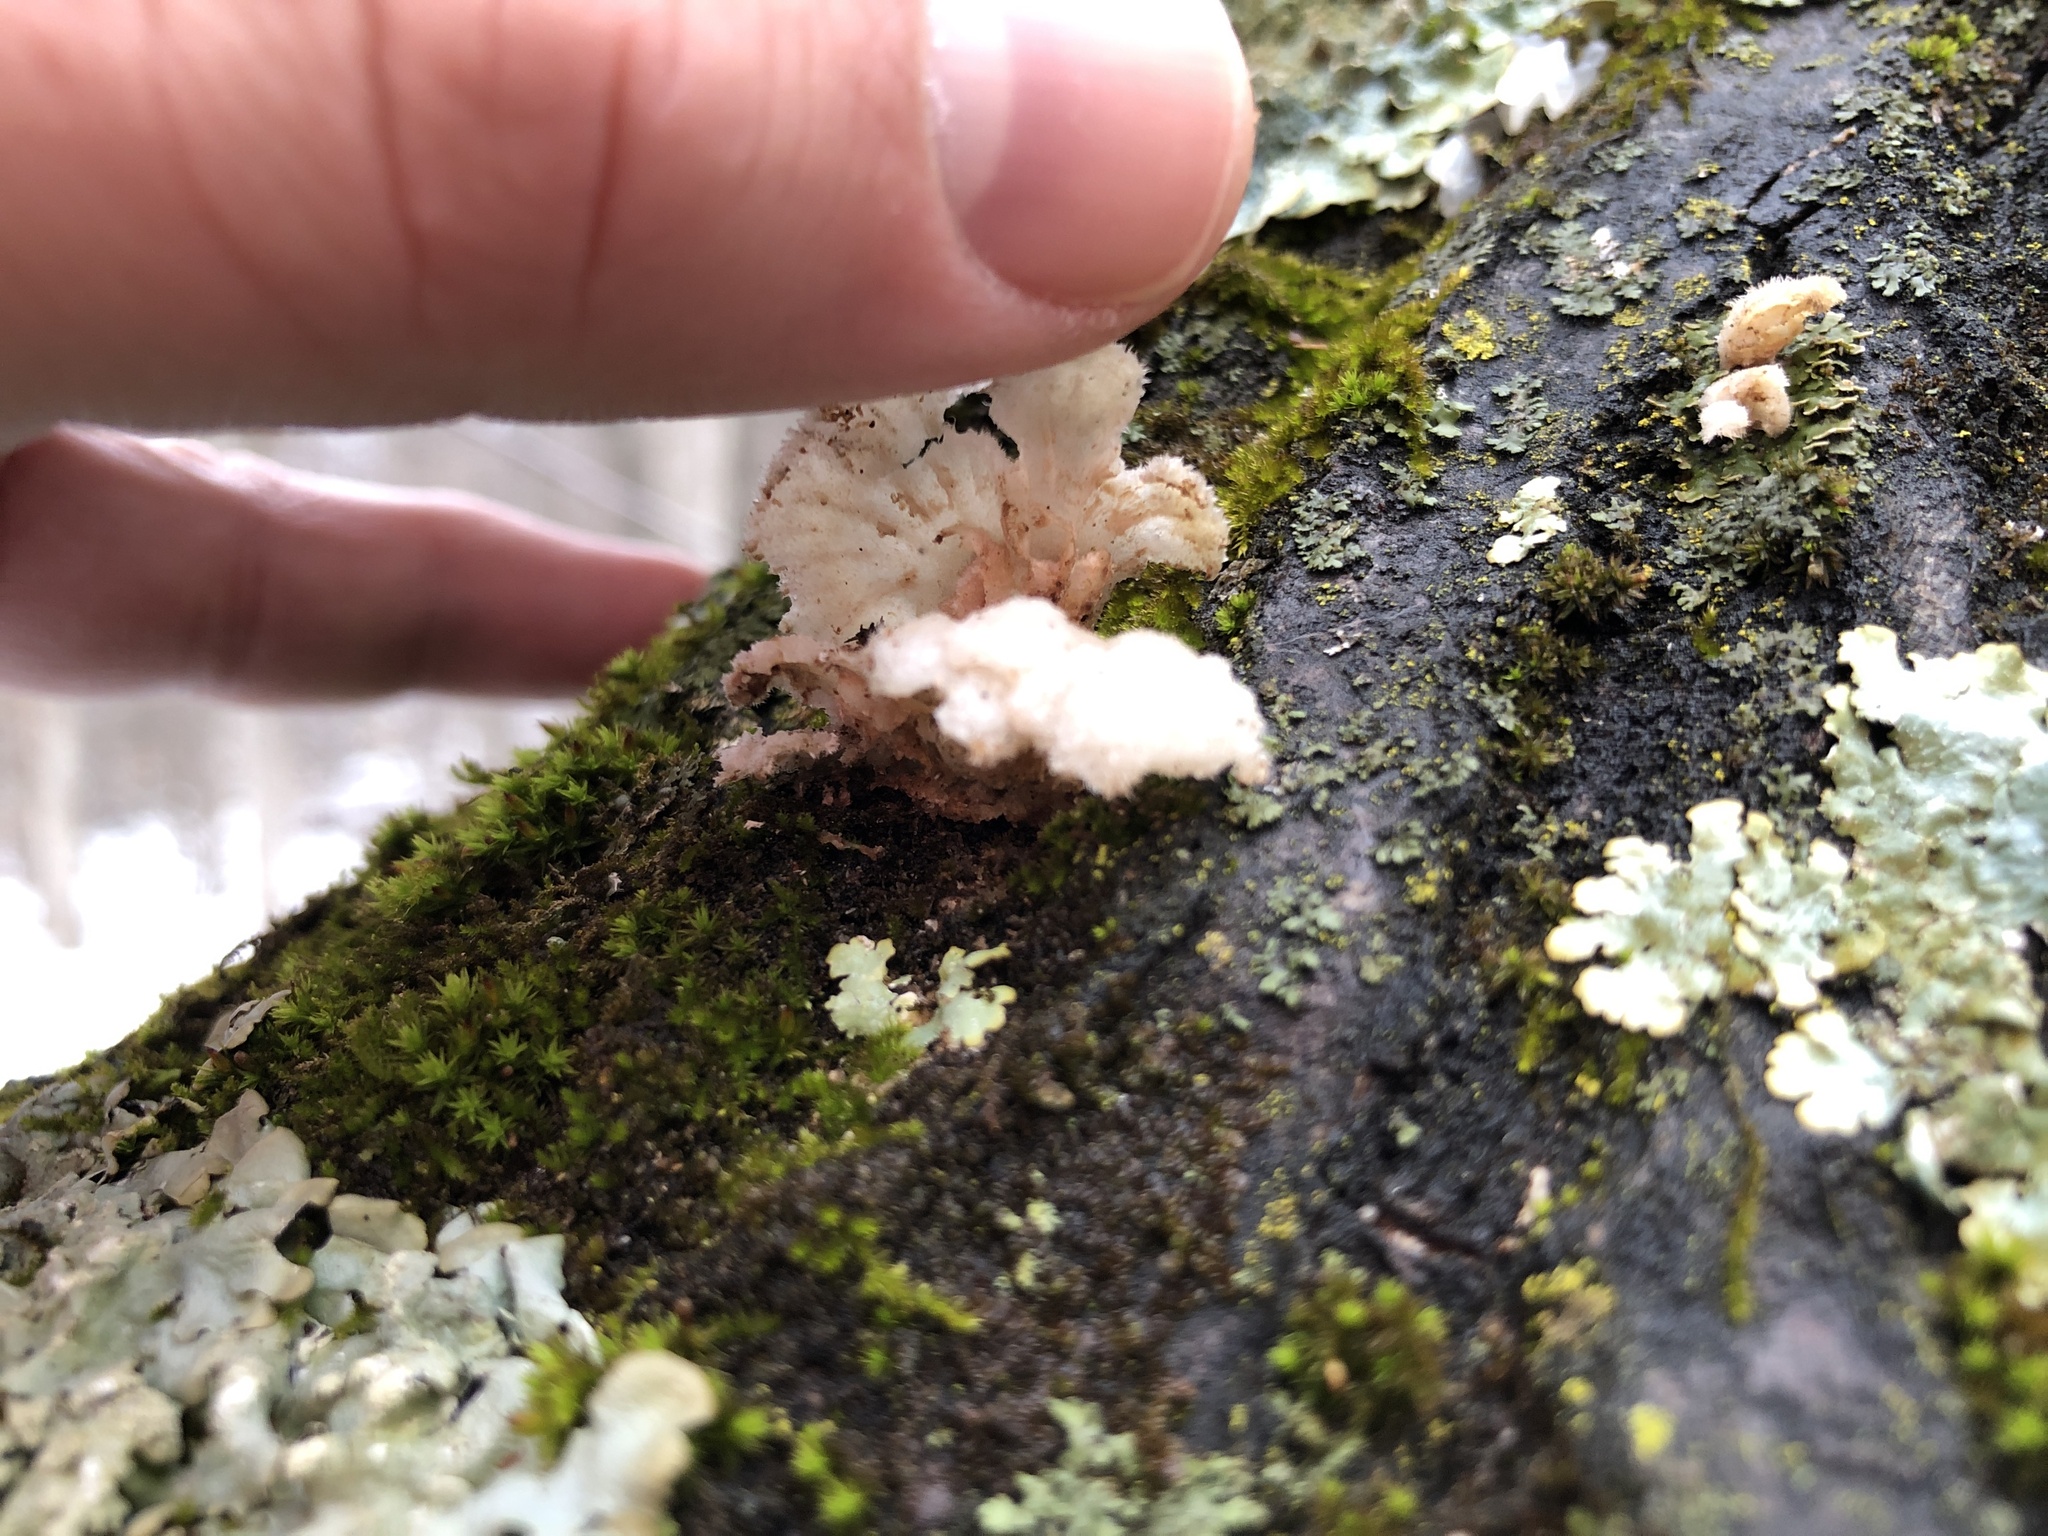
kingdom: Fungi
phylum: Basidiomycota
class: Agaricomycetes
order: Agaricales
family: Schizophyllaceae
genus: Schizophyllum
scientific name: Schizophyllum commune
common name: Common porecrust
